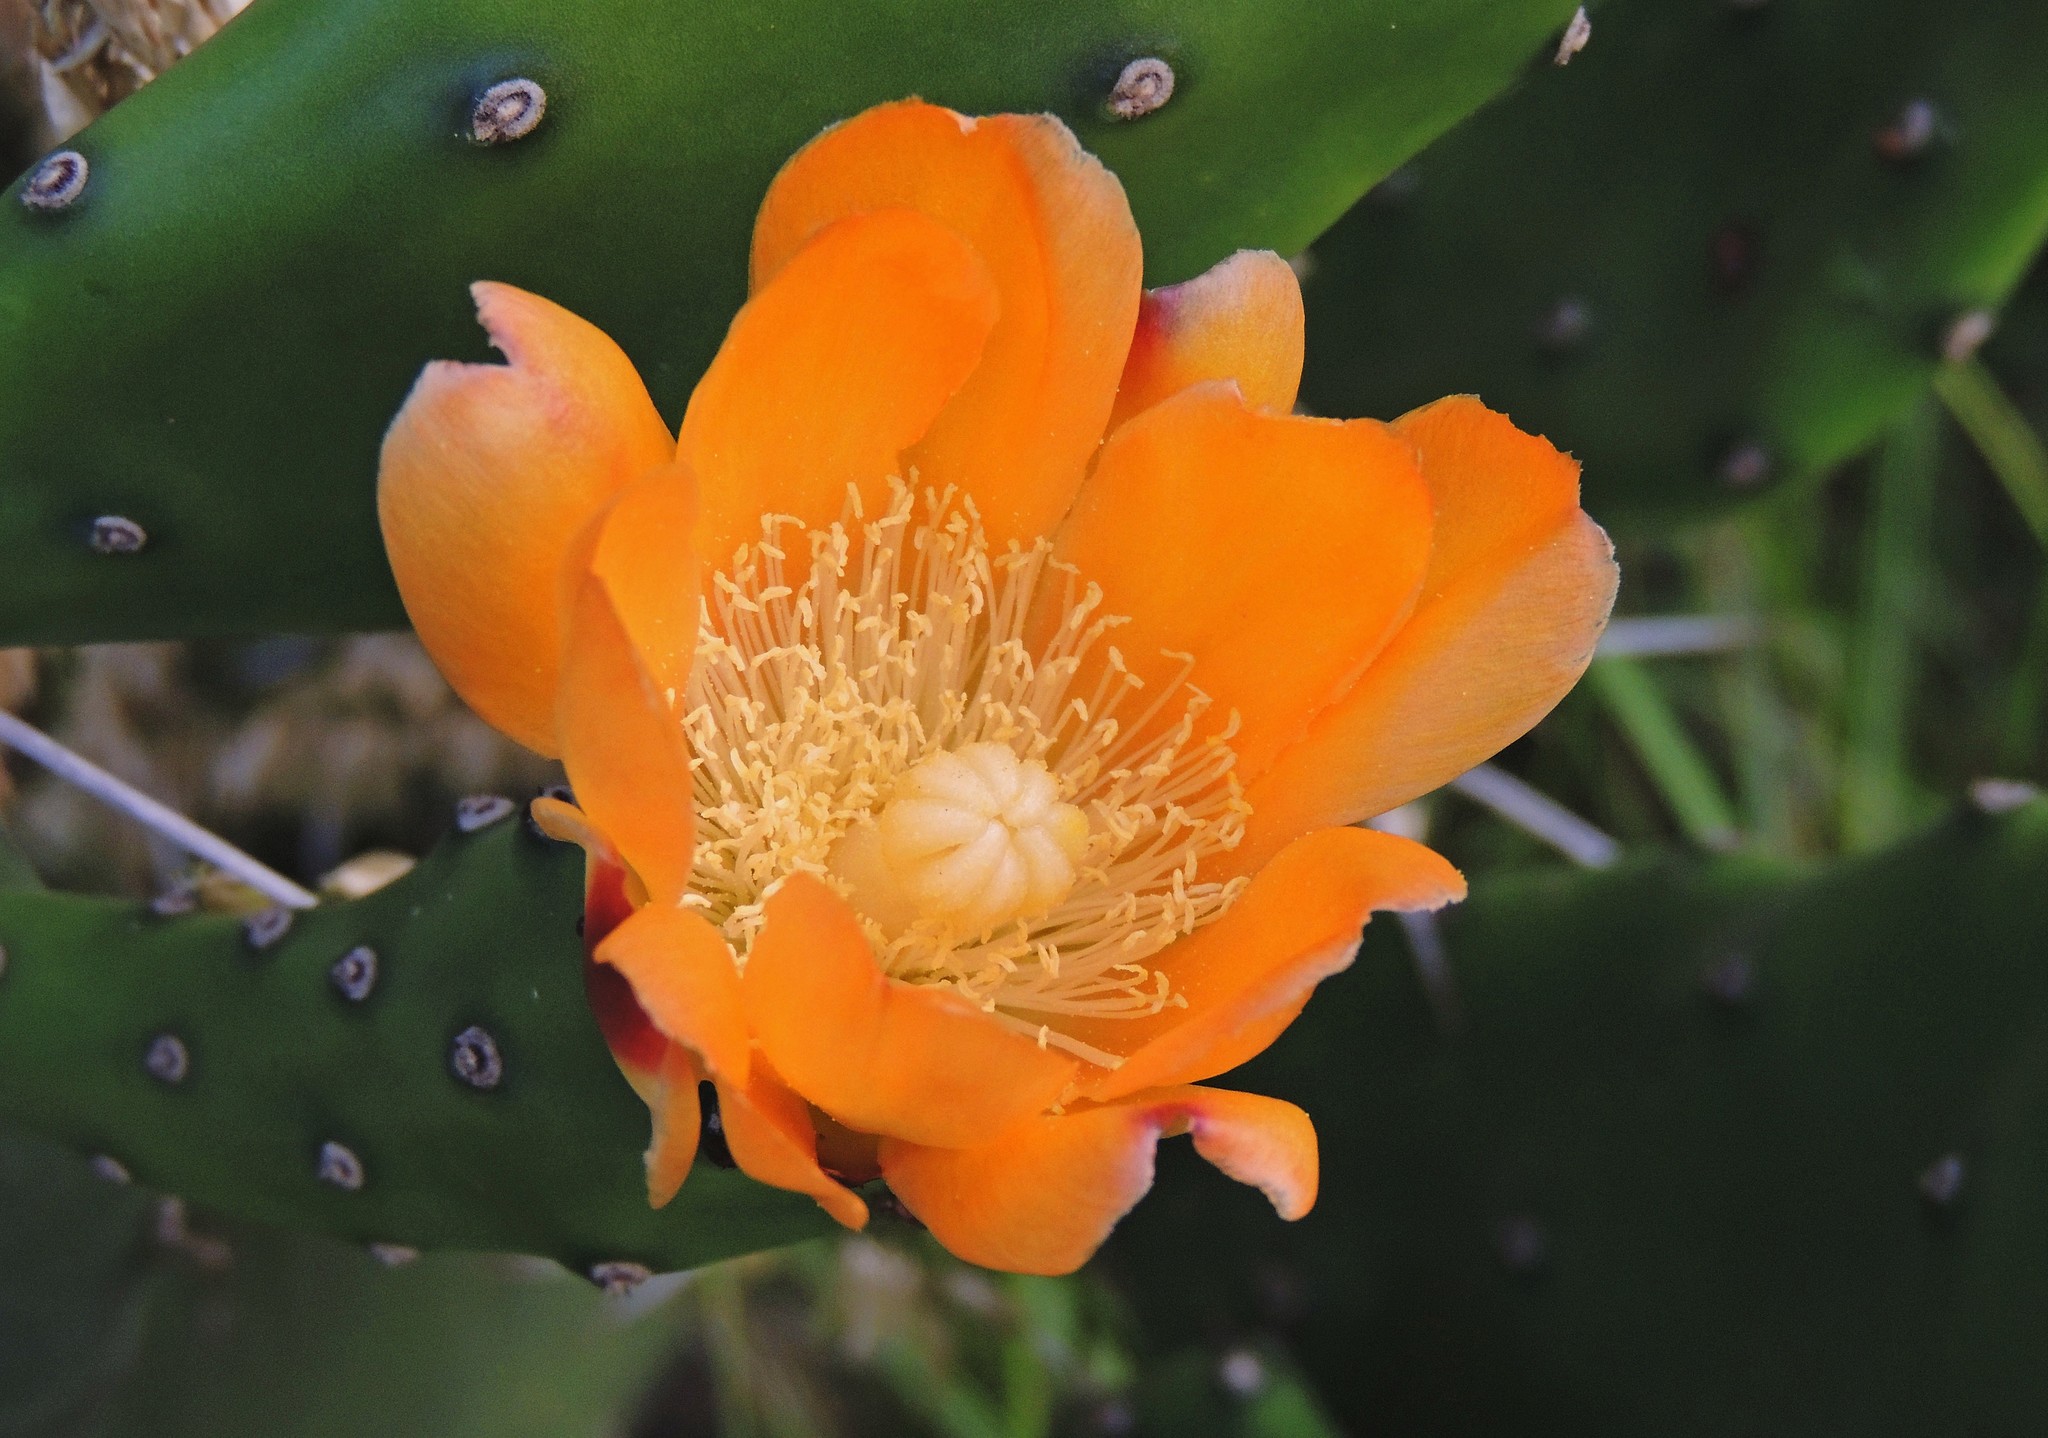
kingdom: Plantae
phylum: Tracheophyta
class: Magnoliopsida
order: Caryophyllales
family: Cactaceae
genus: Opuntia
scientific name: Opuntia elata
